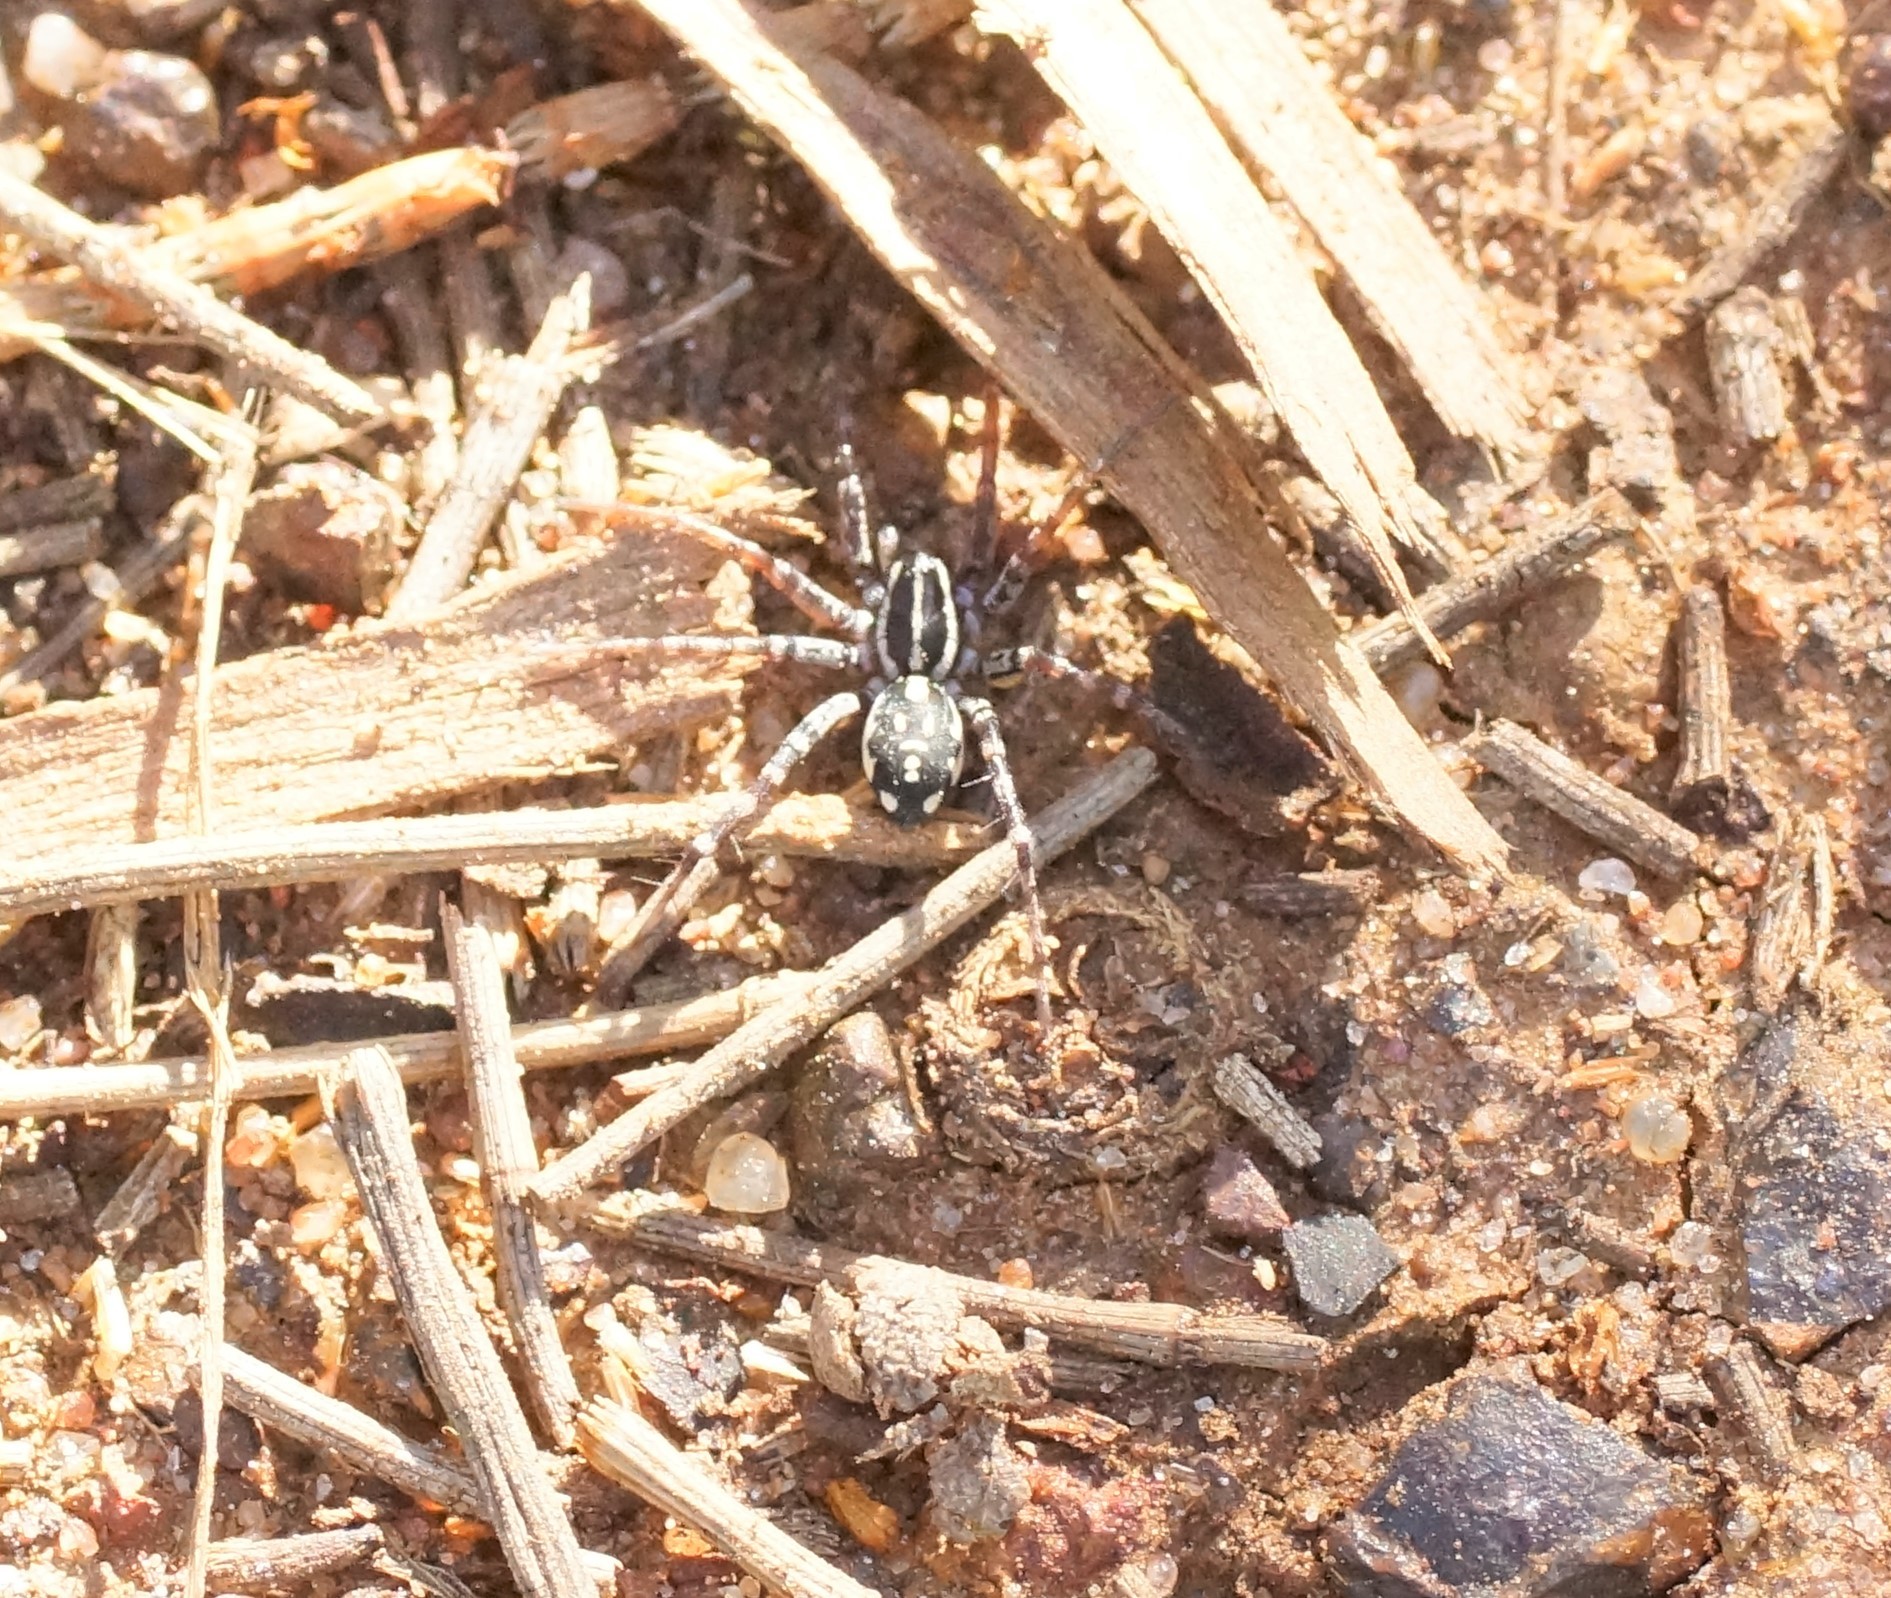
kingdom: Animalia
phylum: Arthropoda
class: Arachnida
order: Araneae
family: Corinnidae
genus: Nyssus
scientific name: Nyssus coloripes
